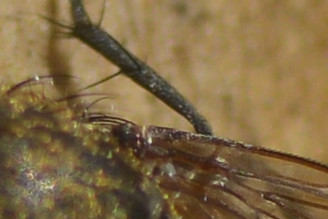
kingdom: Animalia
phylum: Arthropoda
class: Insecta
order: Diptera
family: Polleniidae
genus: Pollenia
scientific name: Pollenia
